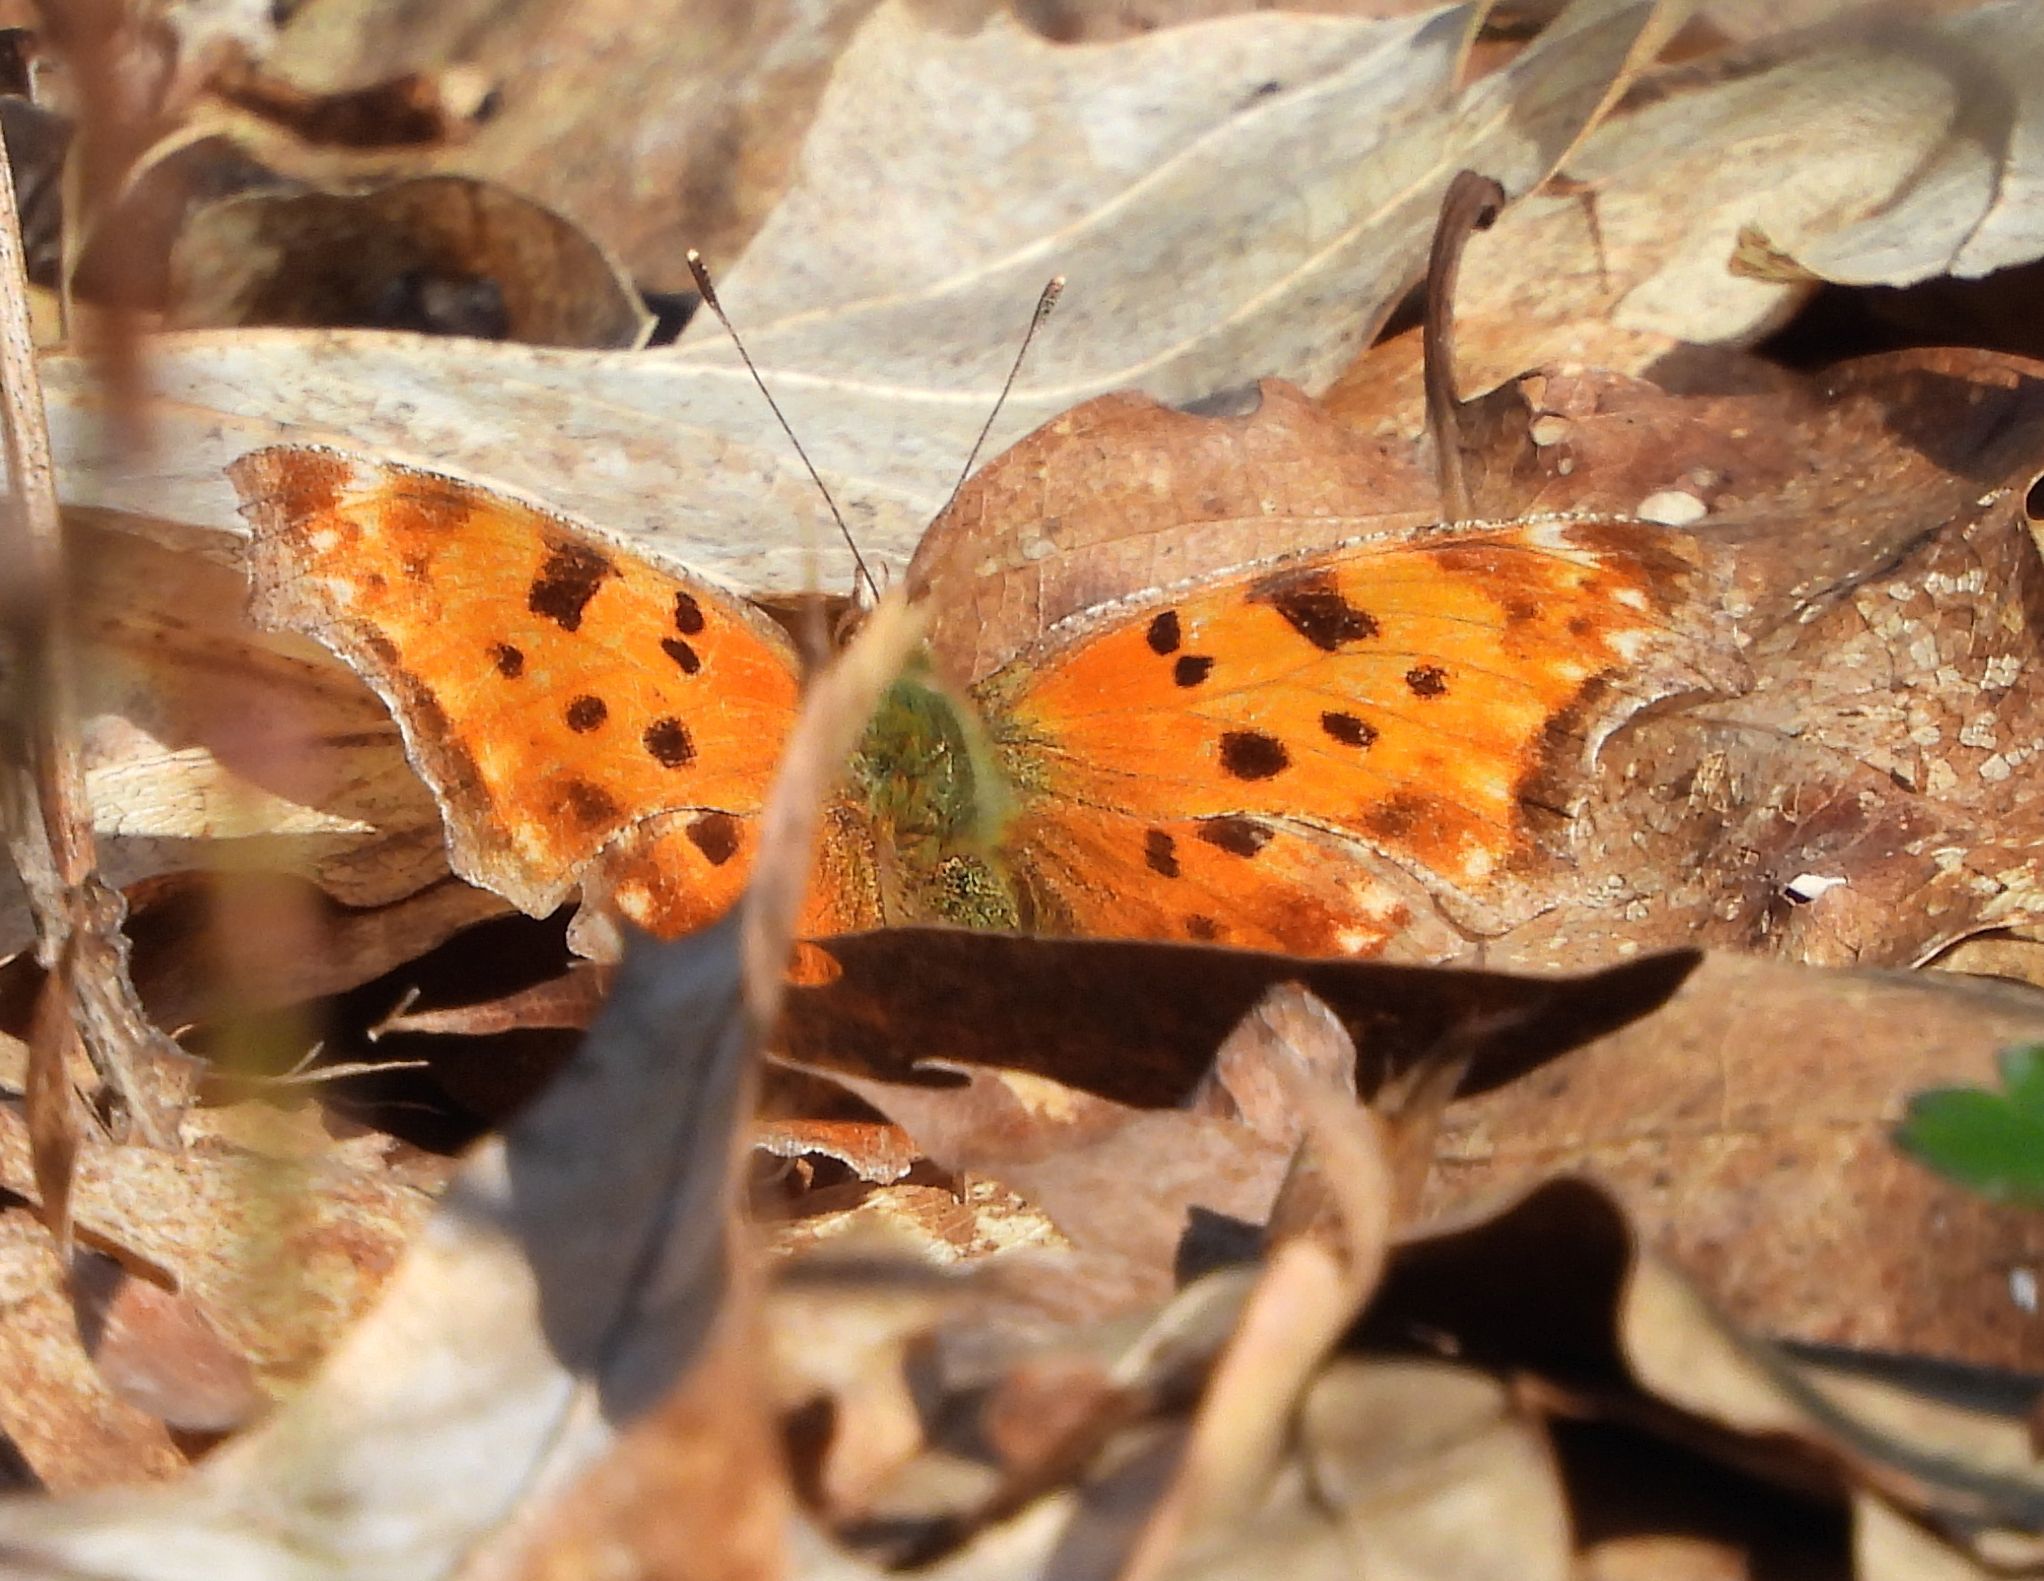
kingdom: Animalia
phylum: Arthropoda
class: Insecta
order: Lepidoptera
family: Nymphalidae
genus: Polygonia
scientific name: Polygonia comma
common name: Eastern comma
